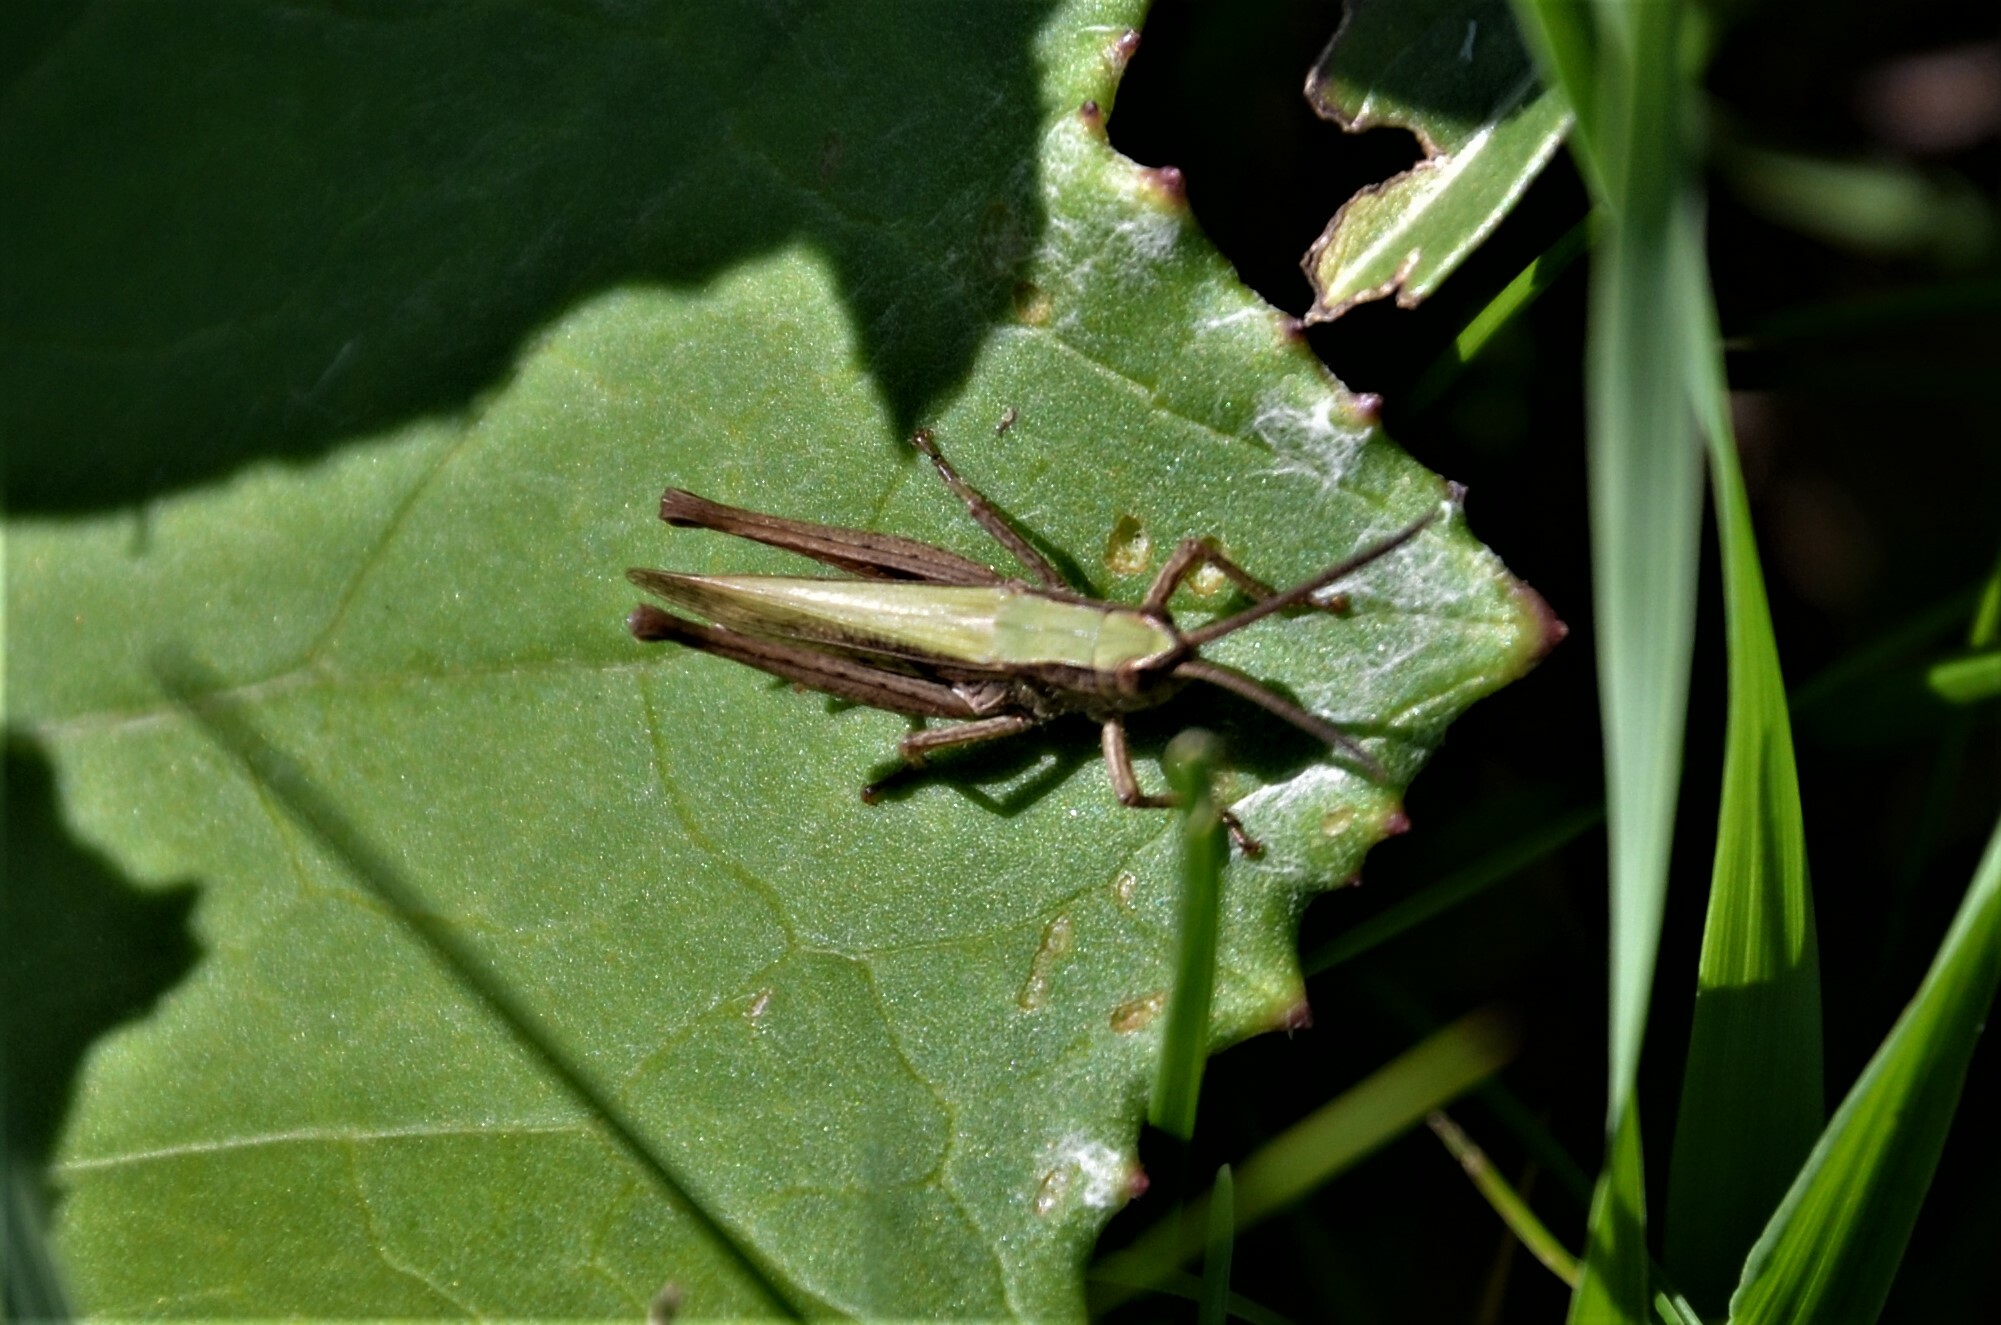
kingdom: Animalia
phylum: Arthropoda
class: Insecta
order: Orthoptera
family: Acrididae
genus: Chorthippus
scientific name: Chorthippus dorsatus
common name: Steppe grasshopper
